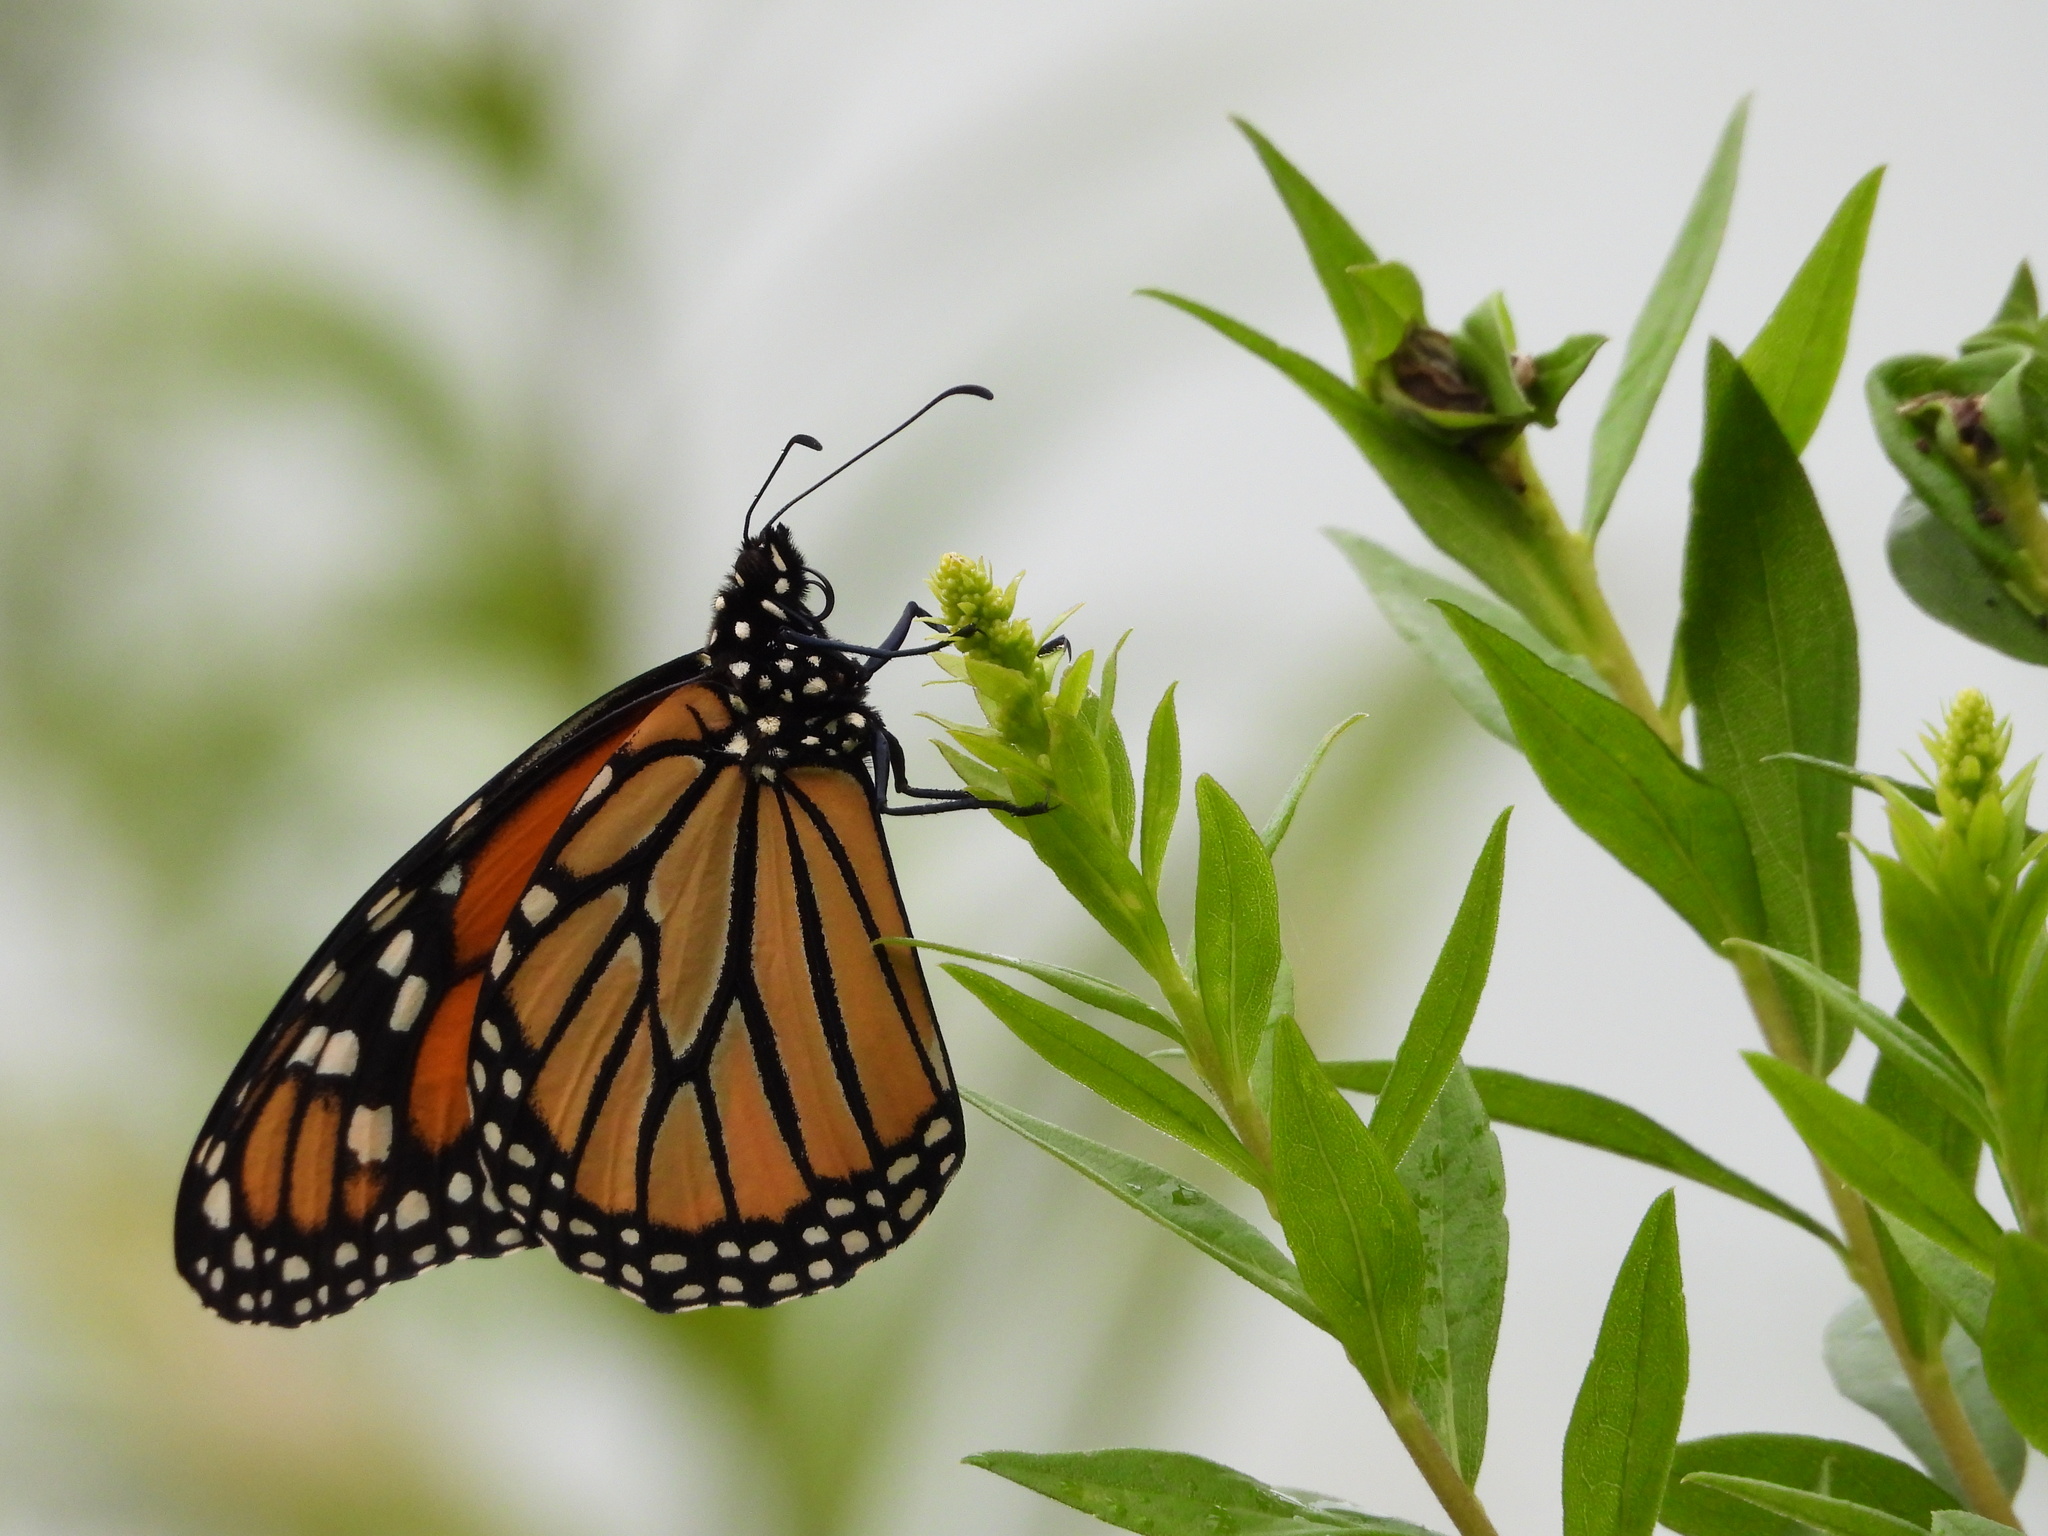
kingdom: Animalia
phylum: Arthropoda
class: Insecta
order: Lepidoptera
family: Nymphalidae
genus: Danaus
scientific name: Danaus plexippus
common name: Monarch
